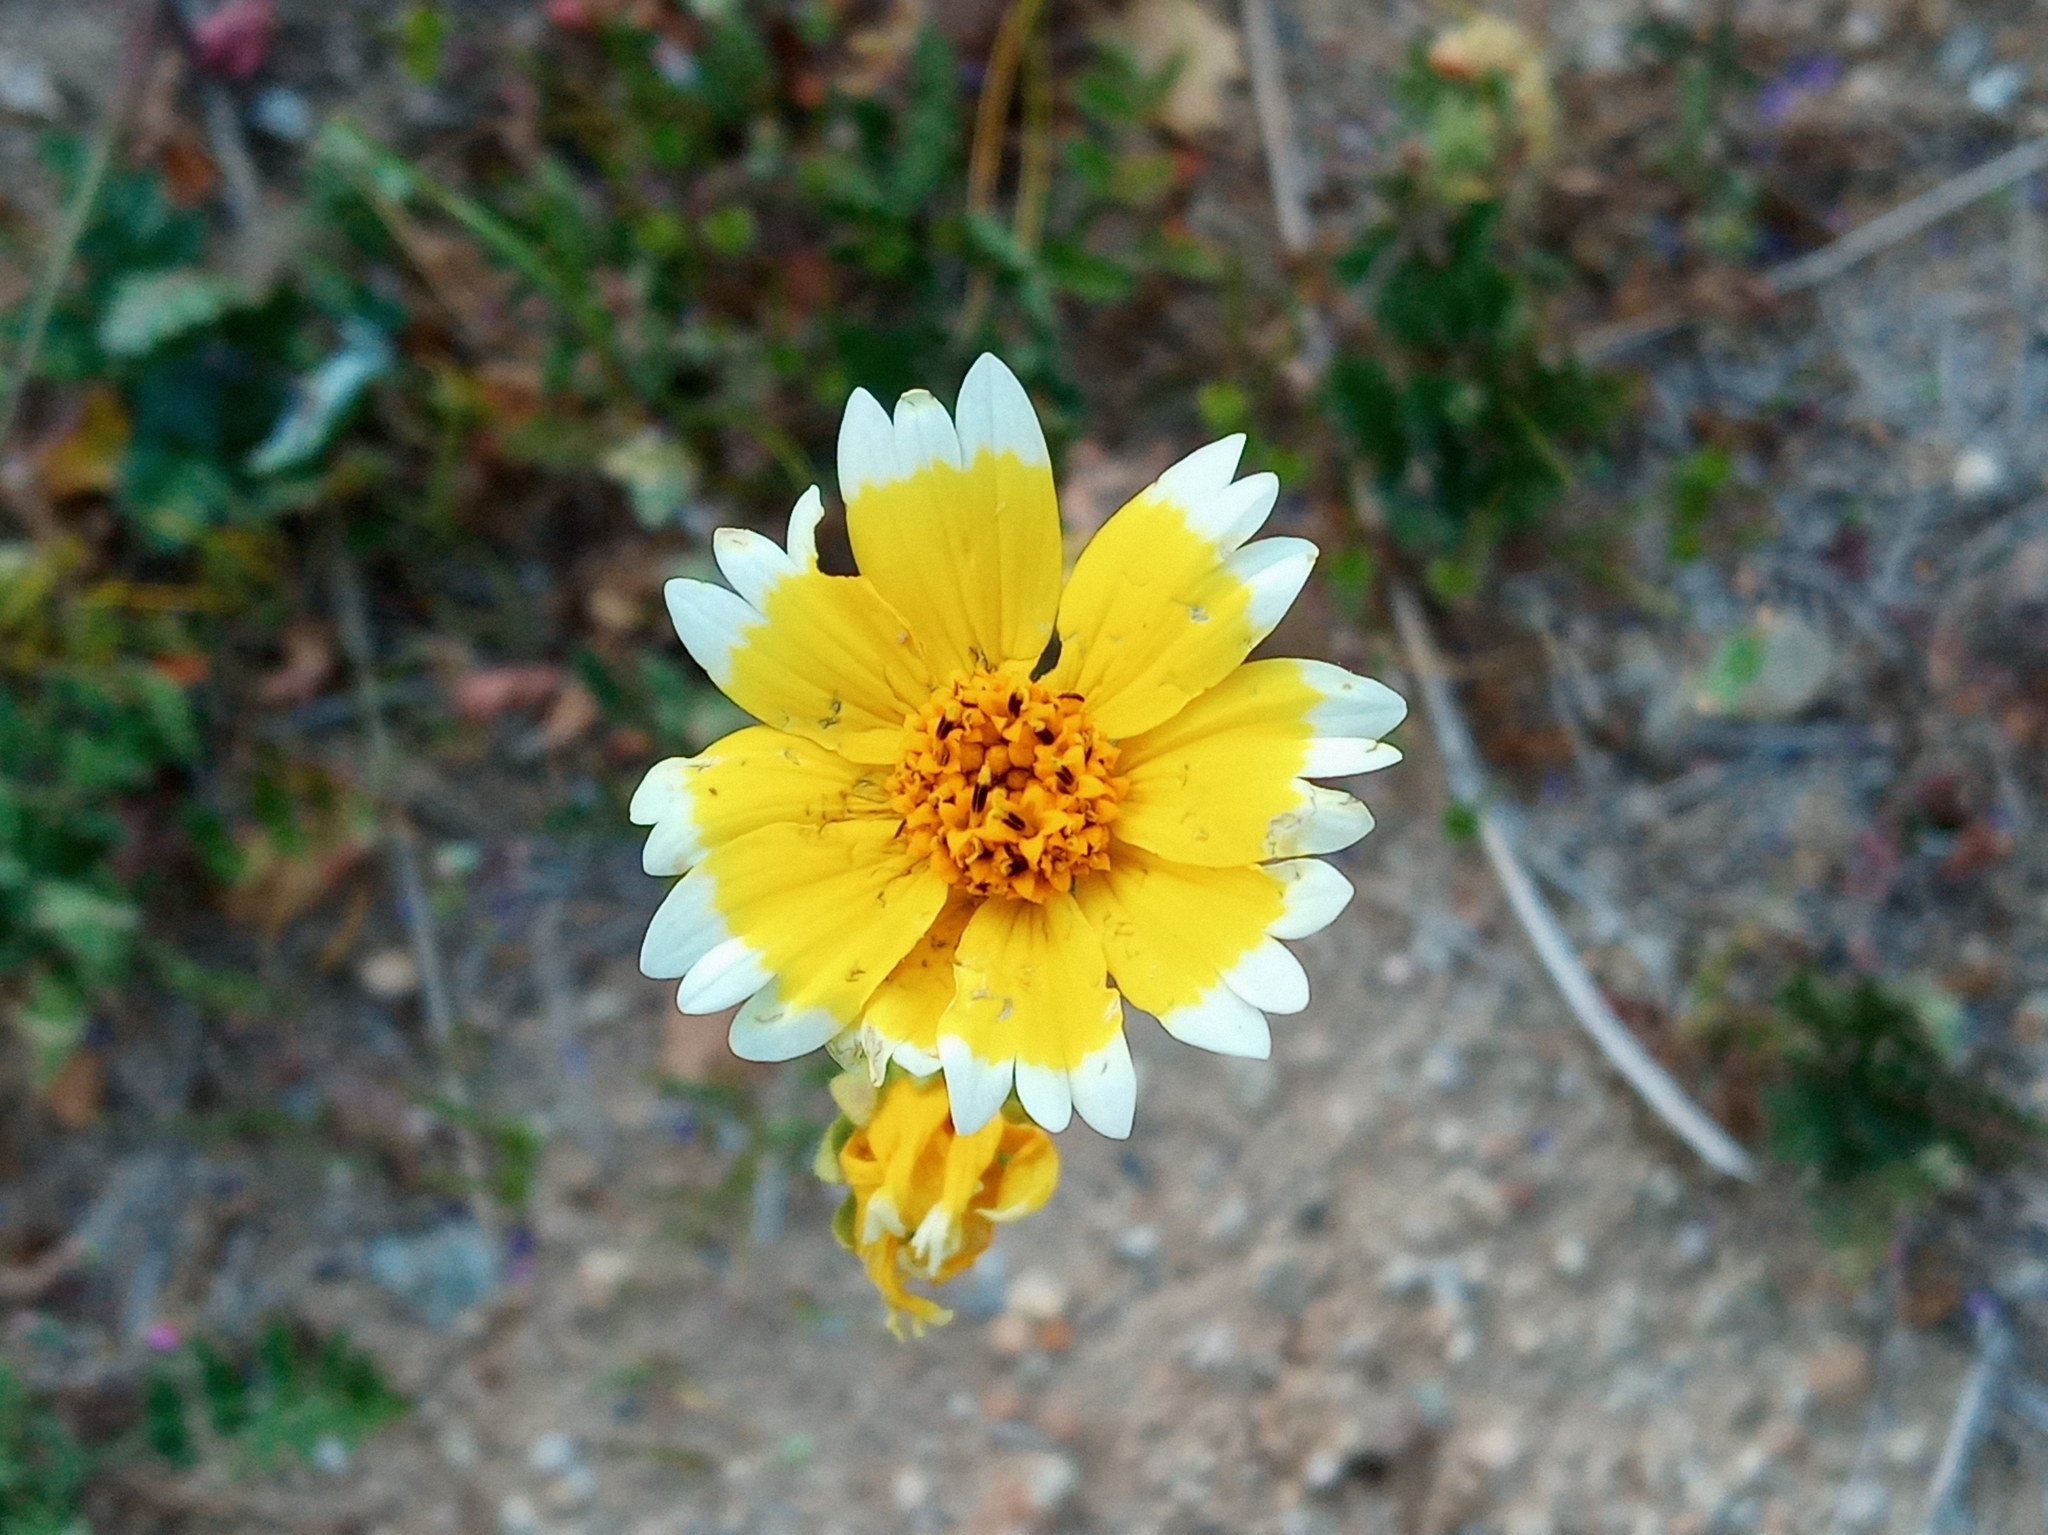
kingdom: Plantae
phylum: Tracheophyta
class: Magnoliopsida
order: Asterales
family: Asteraceae
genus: Layia
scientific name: Layia platyglossa
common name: Tidy-tips
